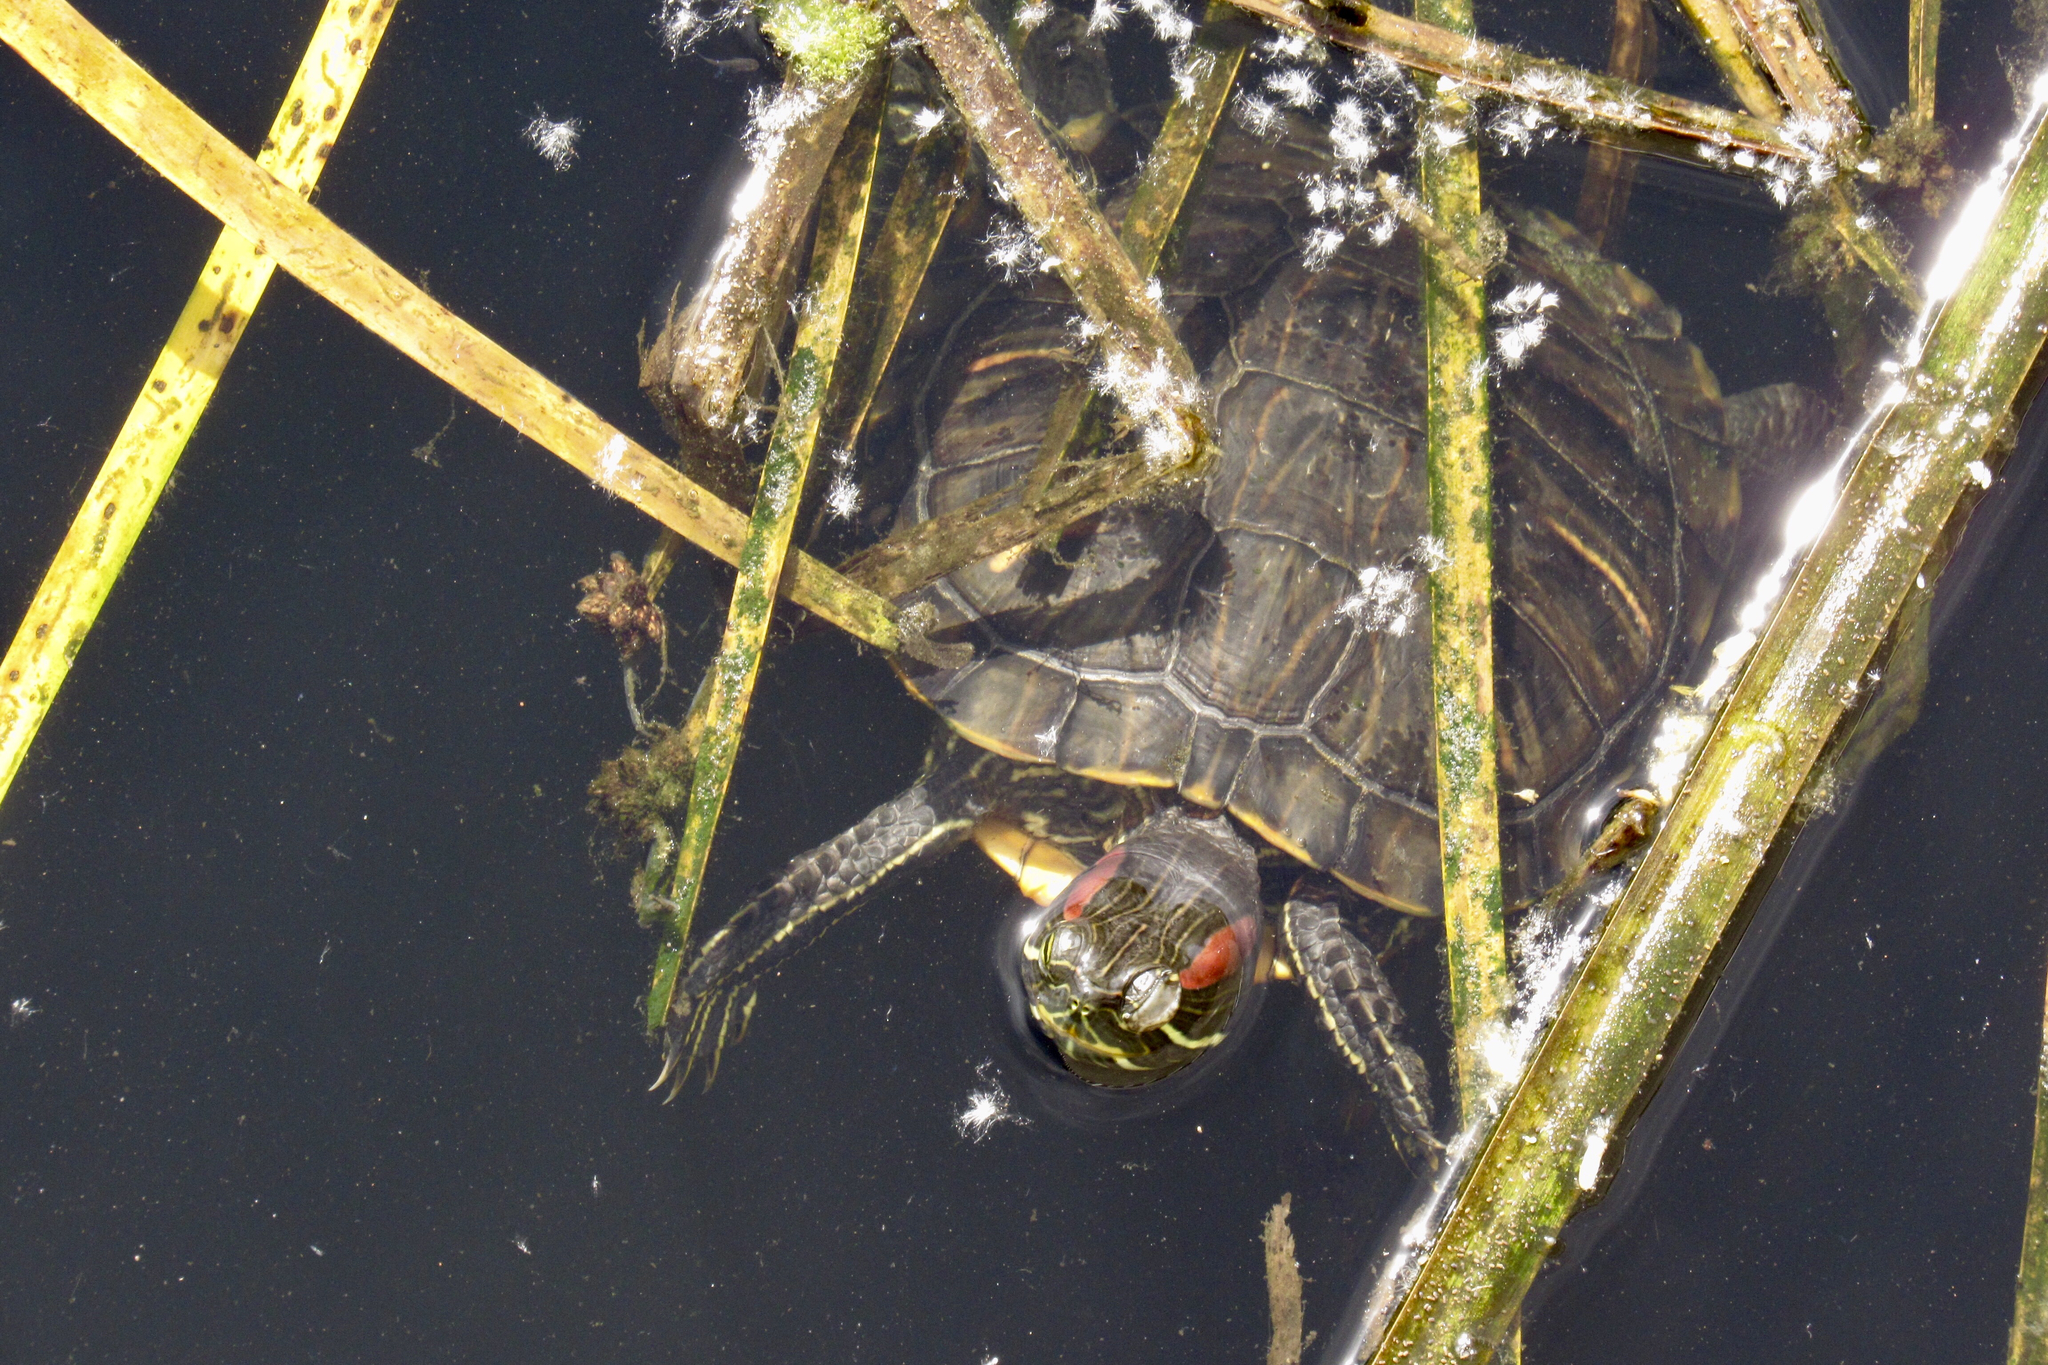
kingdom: Animalia
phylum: Chordata
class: Testudines
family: Emydidae
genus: Trachemys
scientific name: Trachemys scripta
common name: Slider
